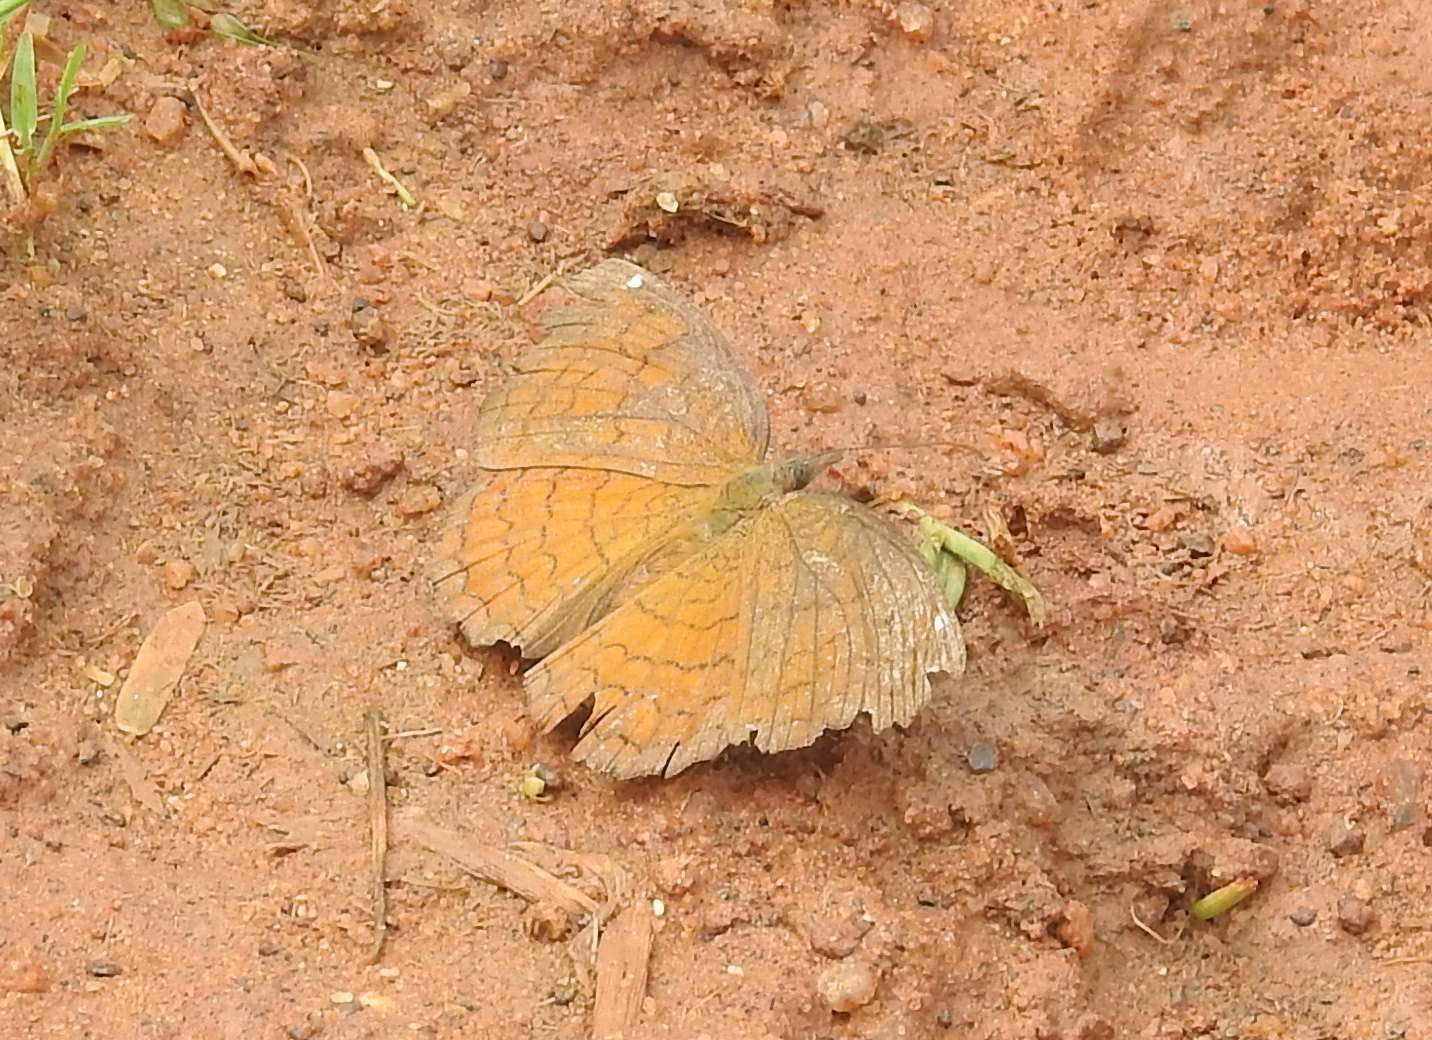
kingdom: Animalia
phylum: Arthropoda
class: Insecta
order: Lepidoptera
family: Nymphalidae
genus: Ariadne
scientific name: Ariadne merione
